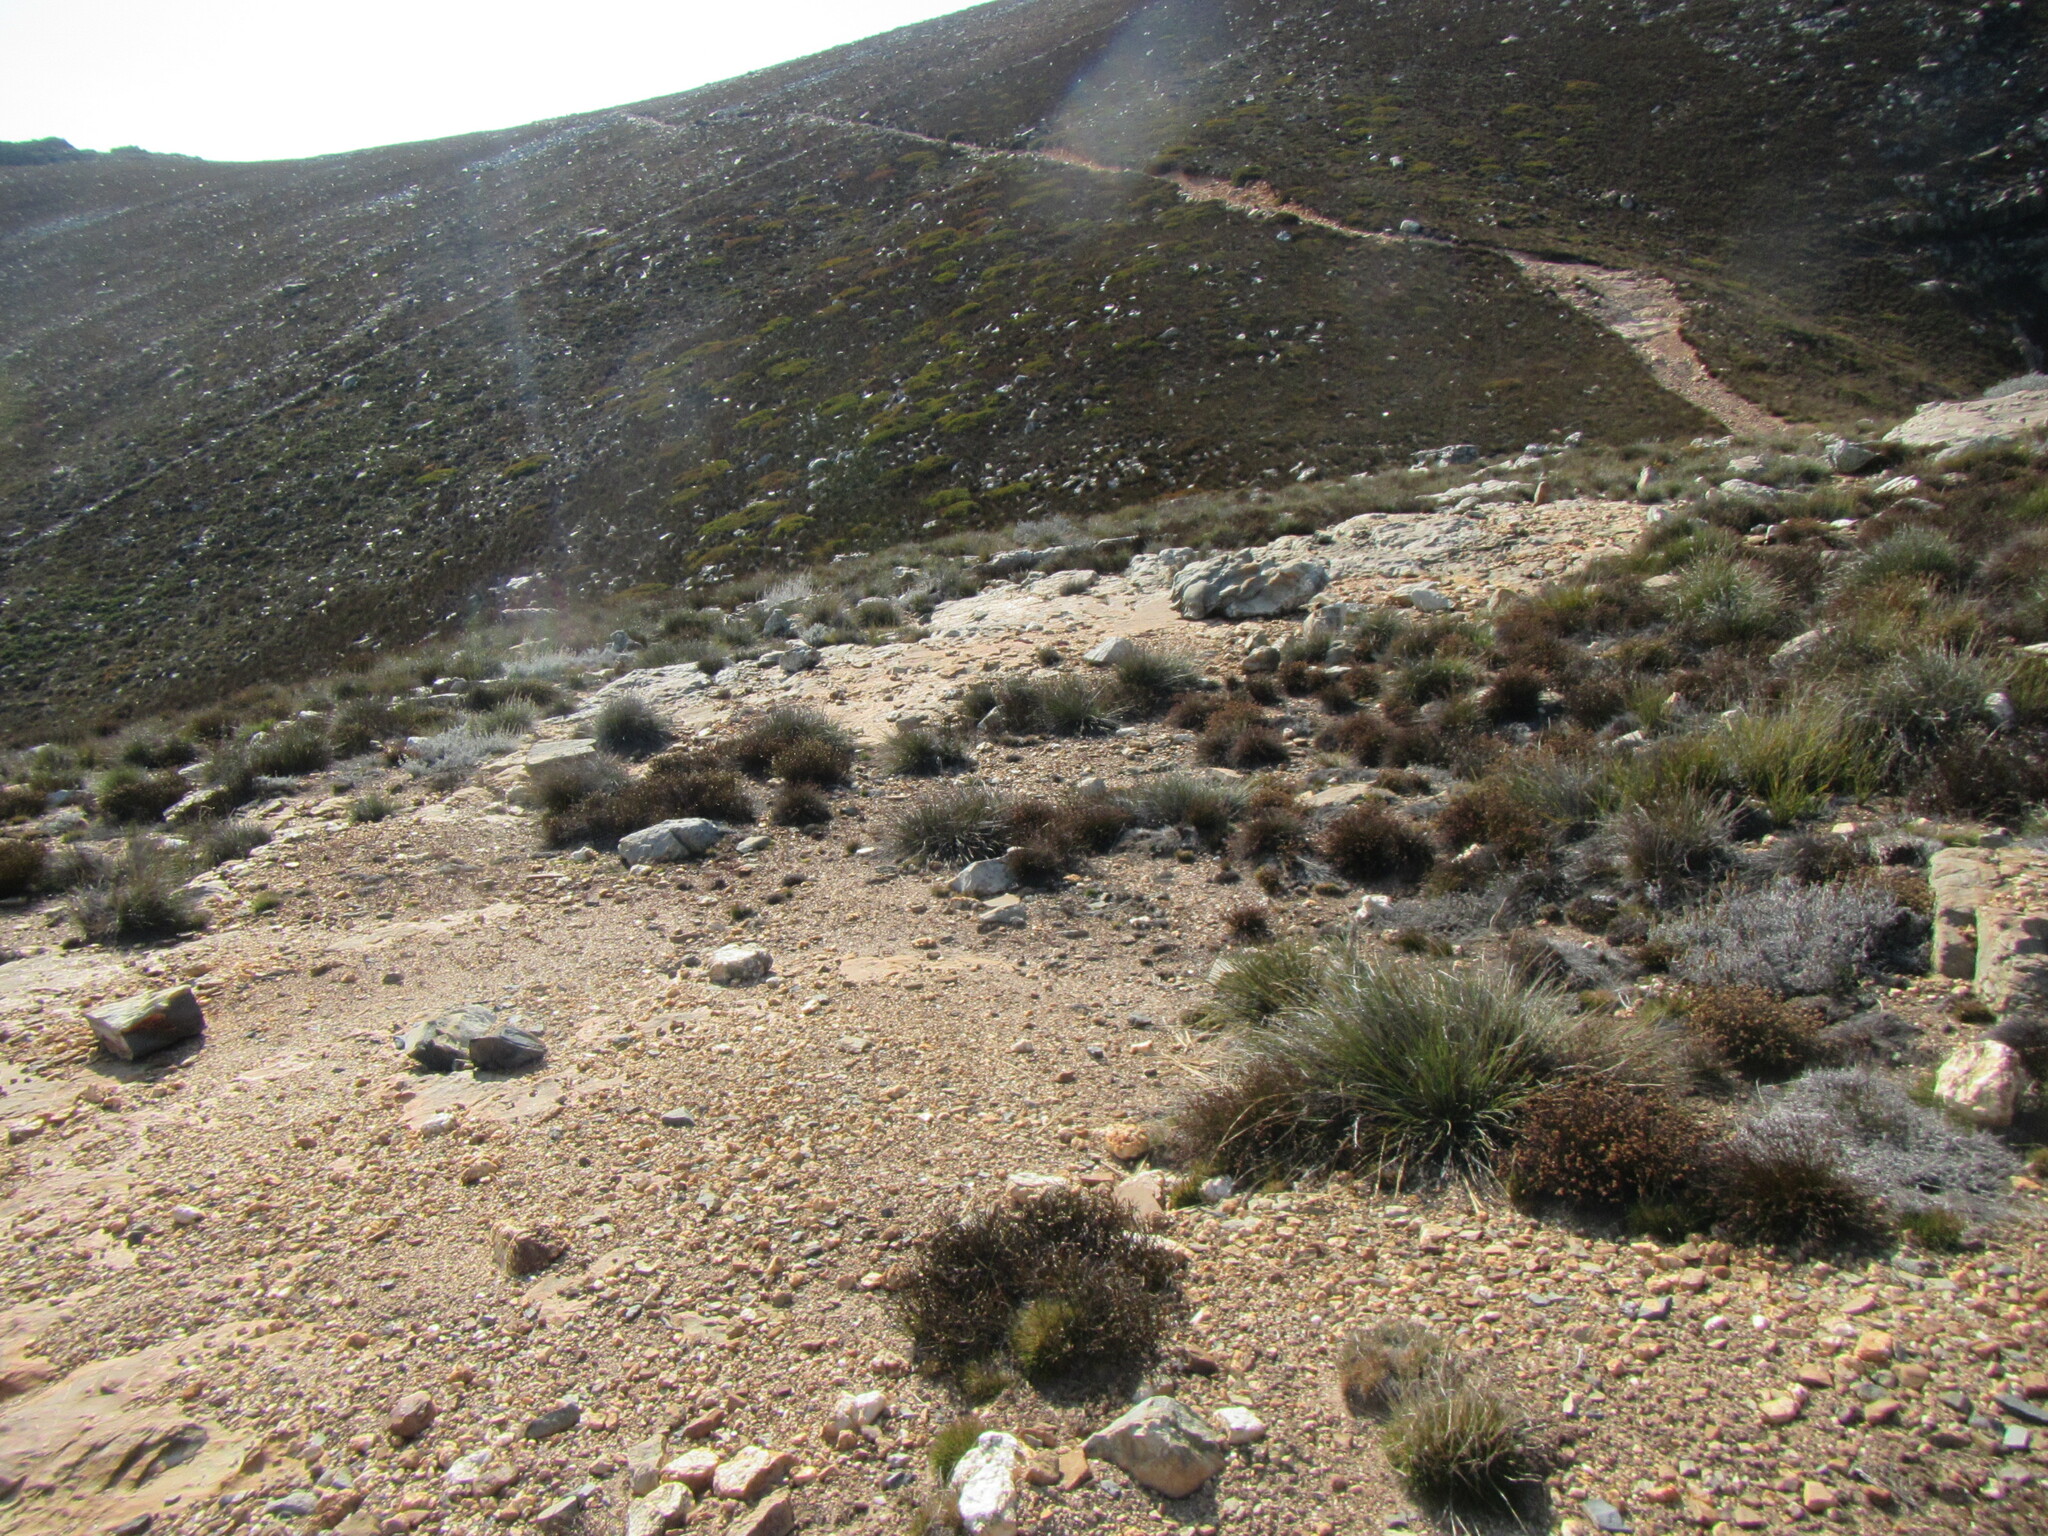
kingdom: Plantae
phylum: Tracheophyta
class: Magnoliopsida
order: Oxalidales
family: Oxalidaceae
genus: Oxalis
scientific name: Oxalis stokoei
